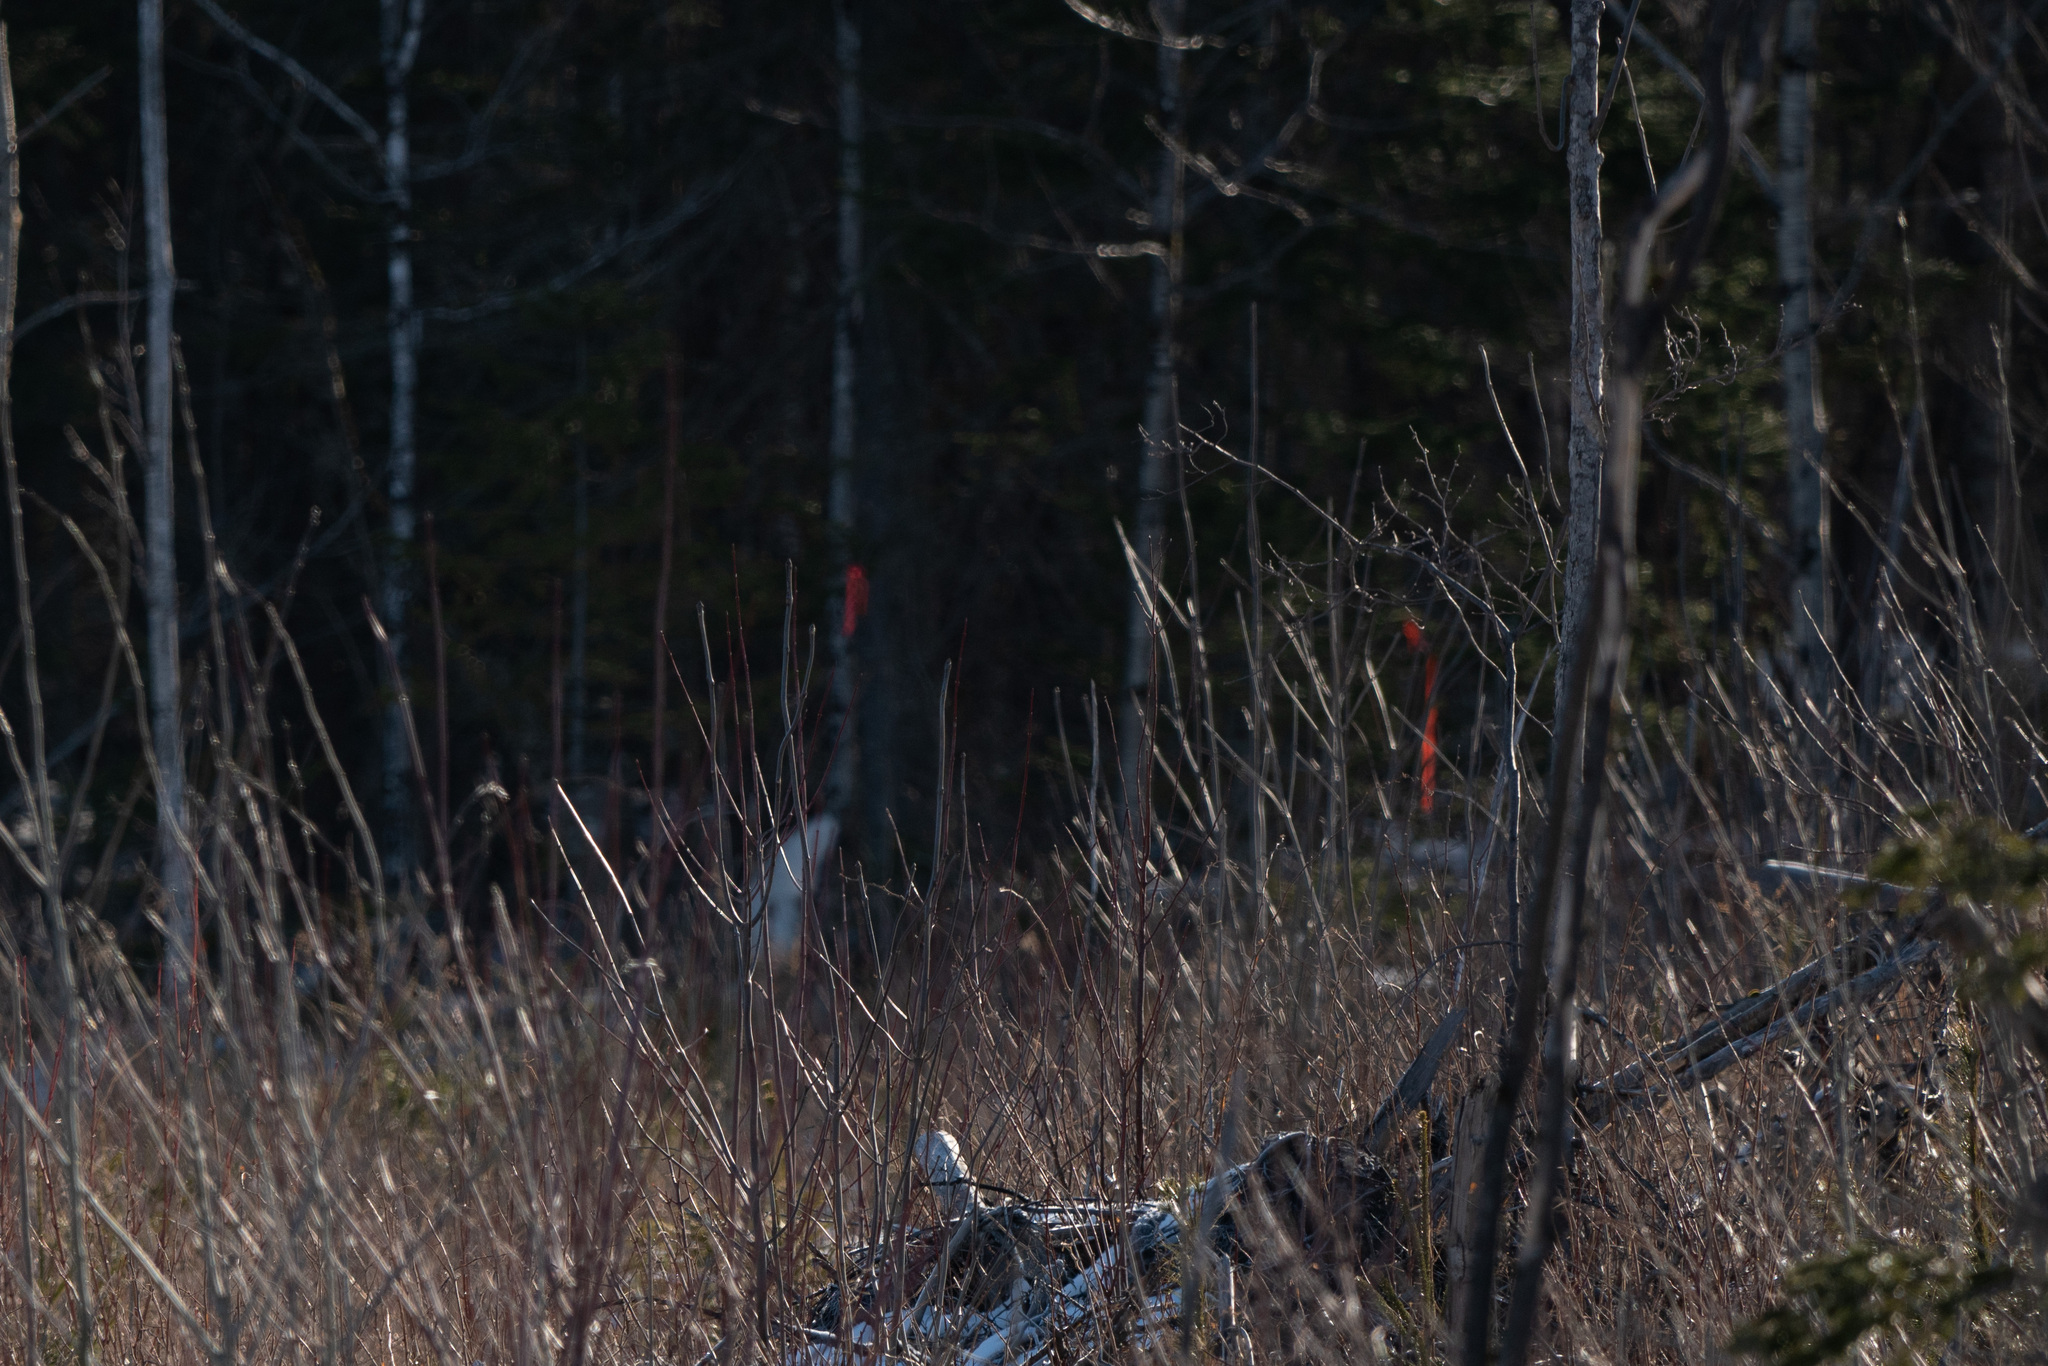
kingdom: Animalia
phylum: Chordata
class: Mammalia
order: Artiodactyla
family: Cervidae
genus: Odocoileus
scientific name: Odocoileus virginianus
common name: White-tailed deer
